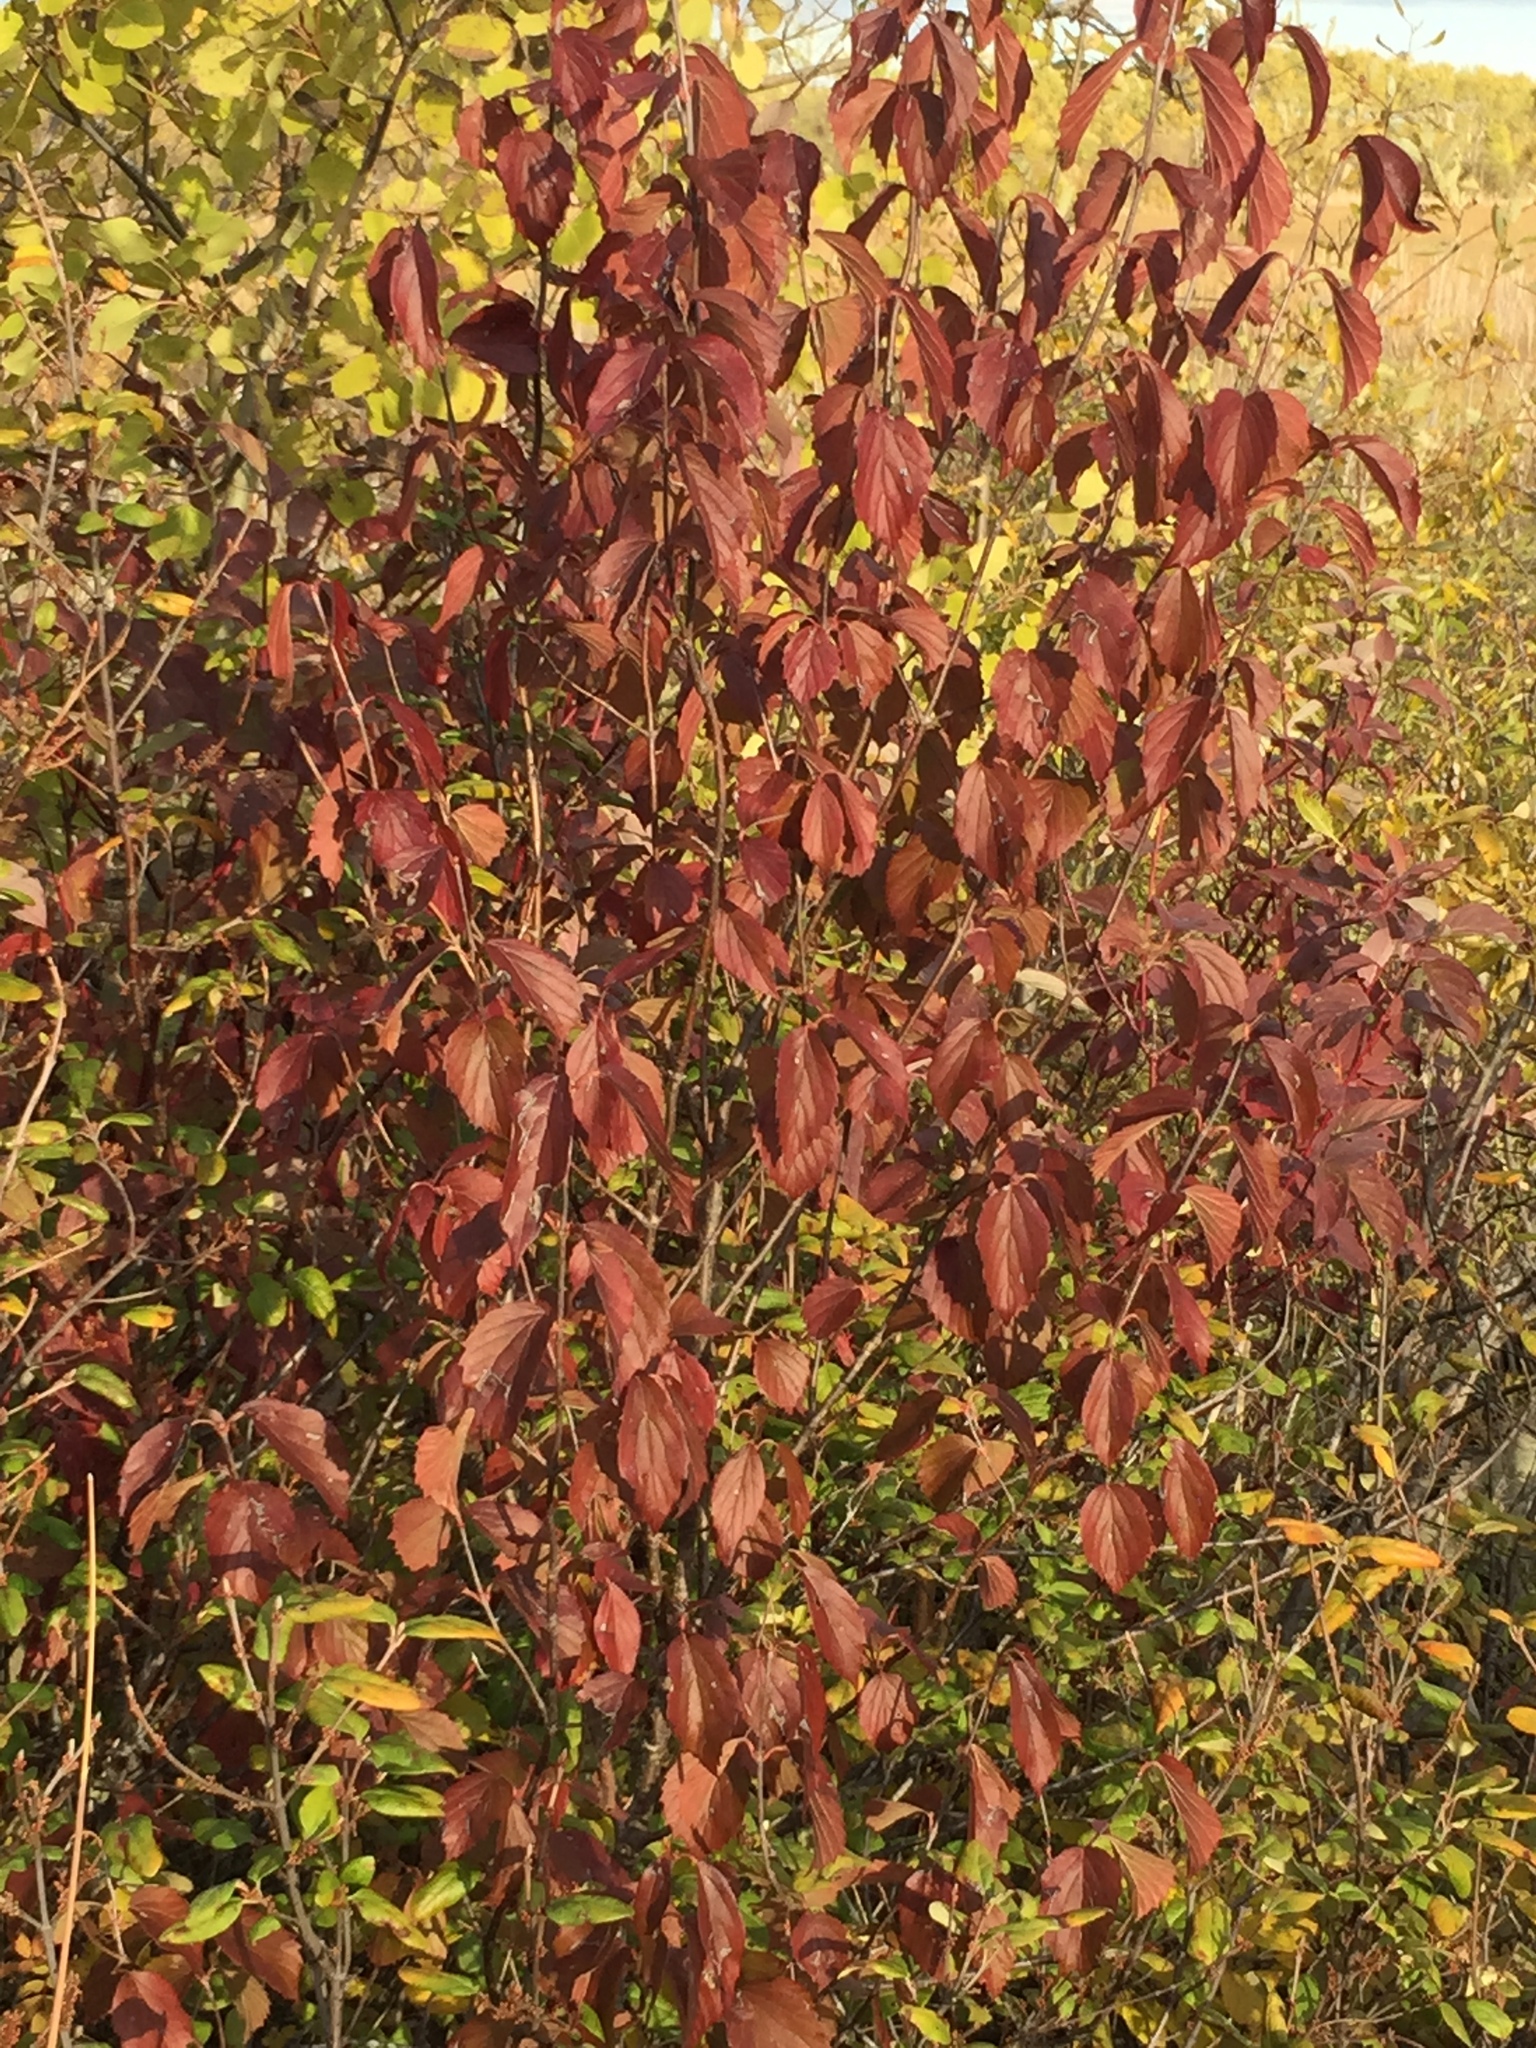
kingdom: Plantae
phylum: Tracheophyta
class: Magnoliopsida
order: Dipsacales
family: Viburnaceae
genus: Viburnum
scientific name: Viburnum rafinesqueanum
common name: Downy arrow-wood
